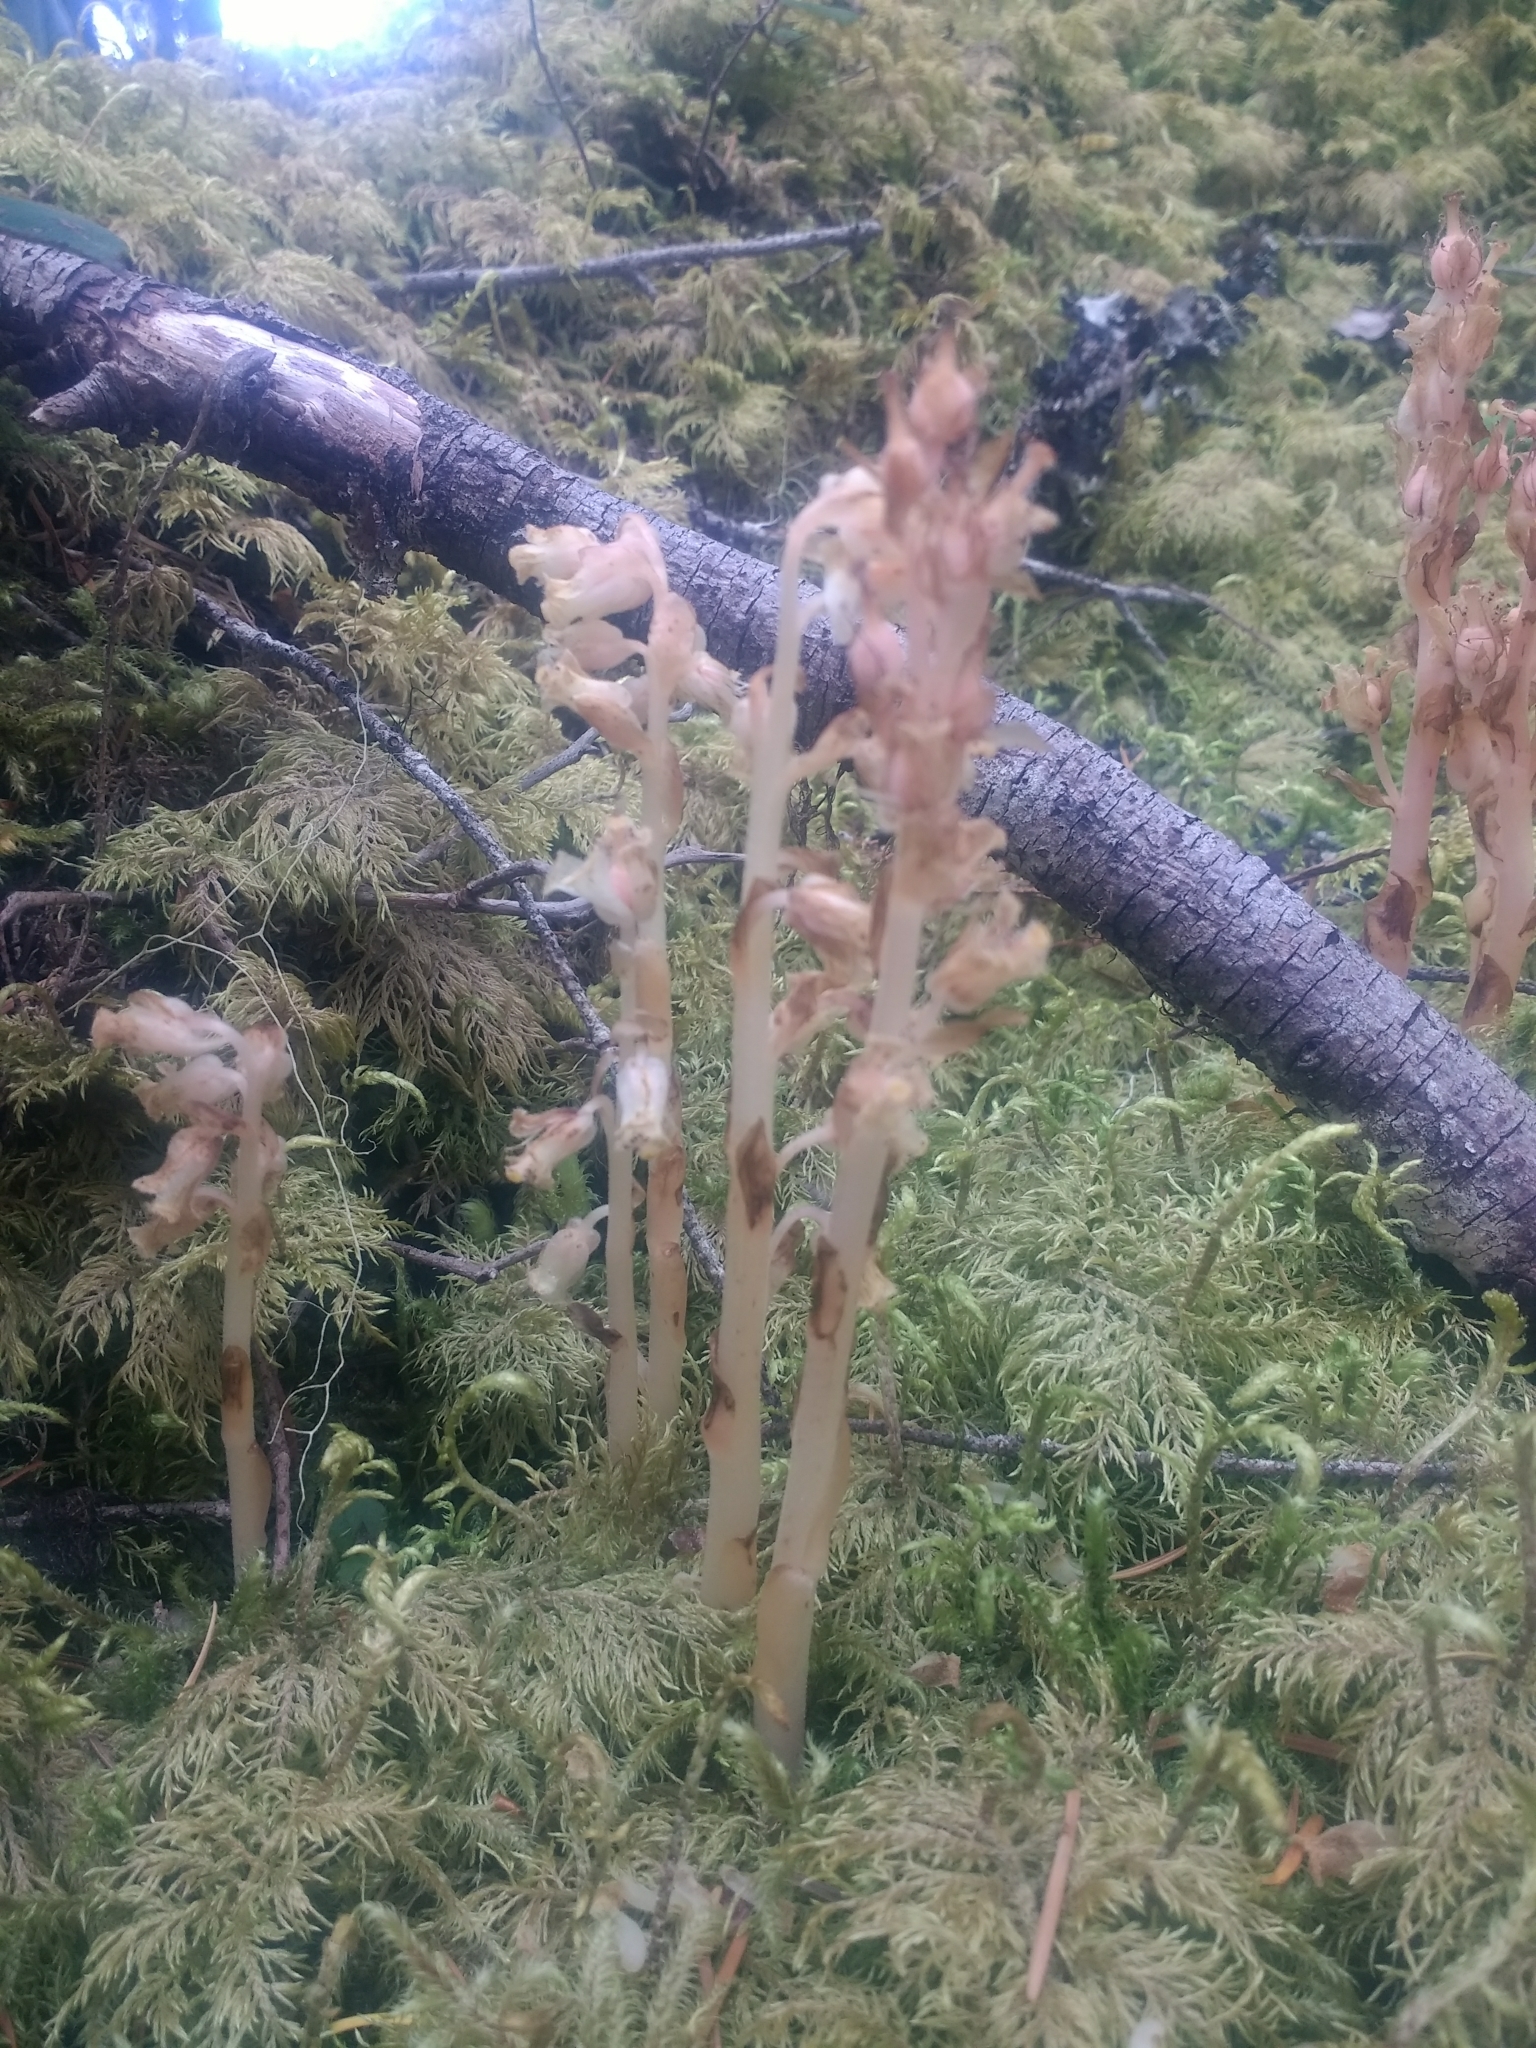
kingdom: Plantae
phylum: Tracheophyta
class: Magnoliopsida
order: Ericales
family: Ericaceae
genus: Hypopitys
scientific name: Hypopitys monotropa
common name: Yellow bird's-nest
